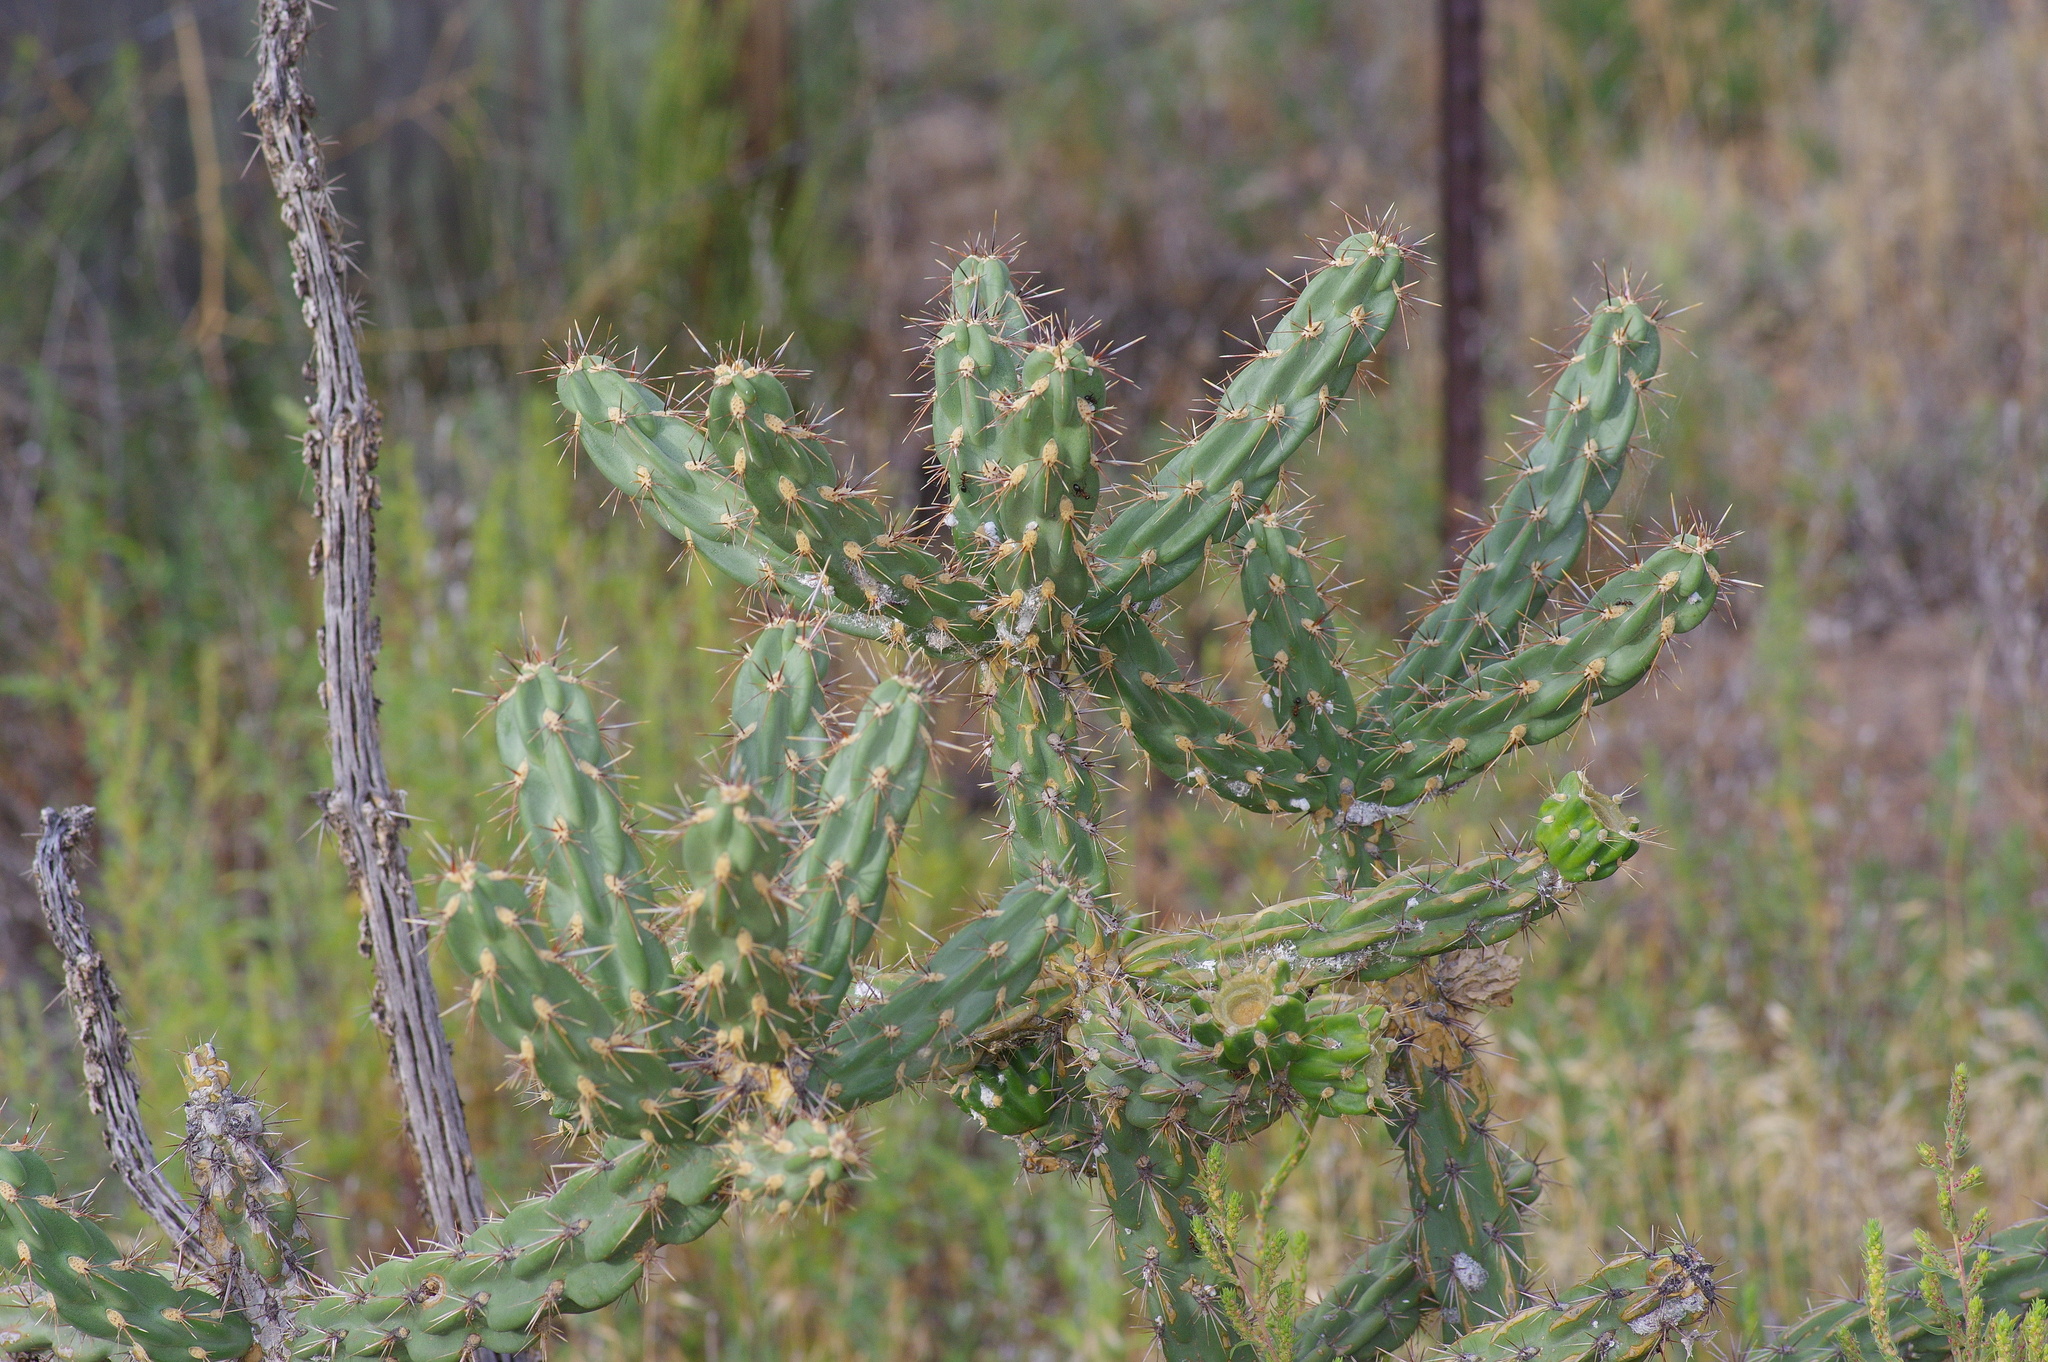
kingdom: Plantae
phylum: Tracheophyta
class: Magnoliopsida
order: Caryophyllales
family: Cactaceae
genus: Cylindropuntia
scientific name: Cylindropuntia imbricata
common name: Candelabrum cactus
